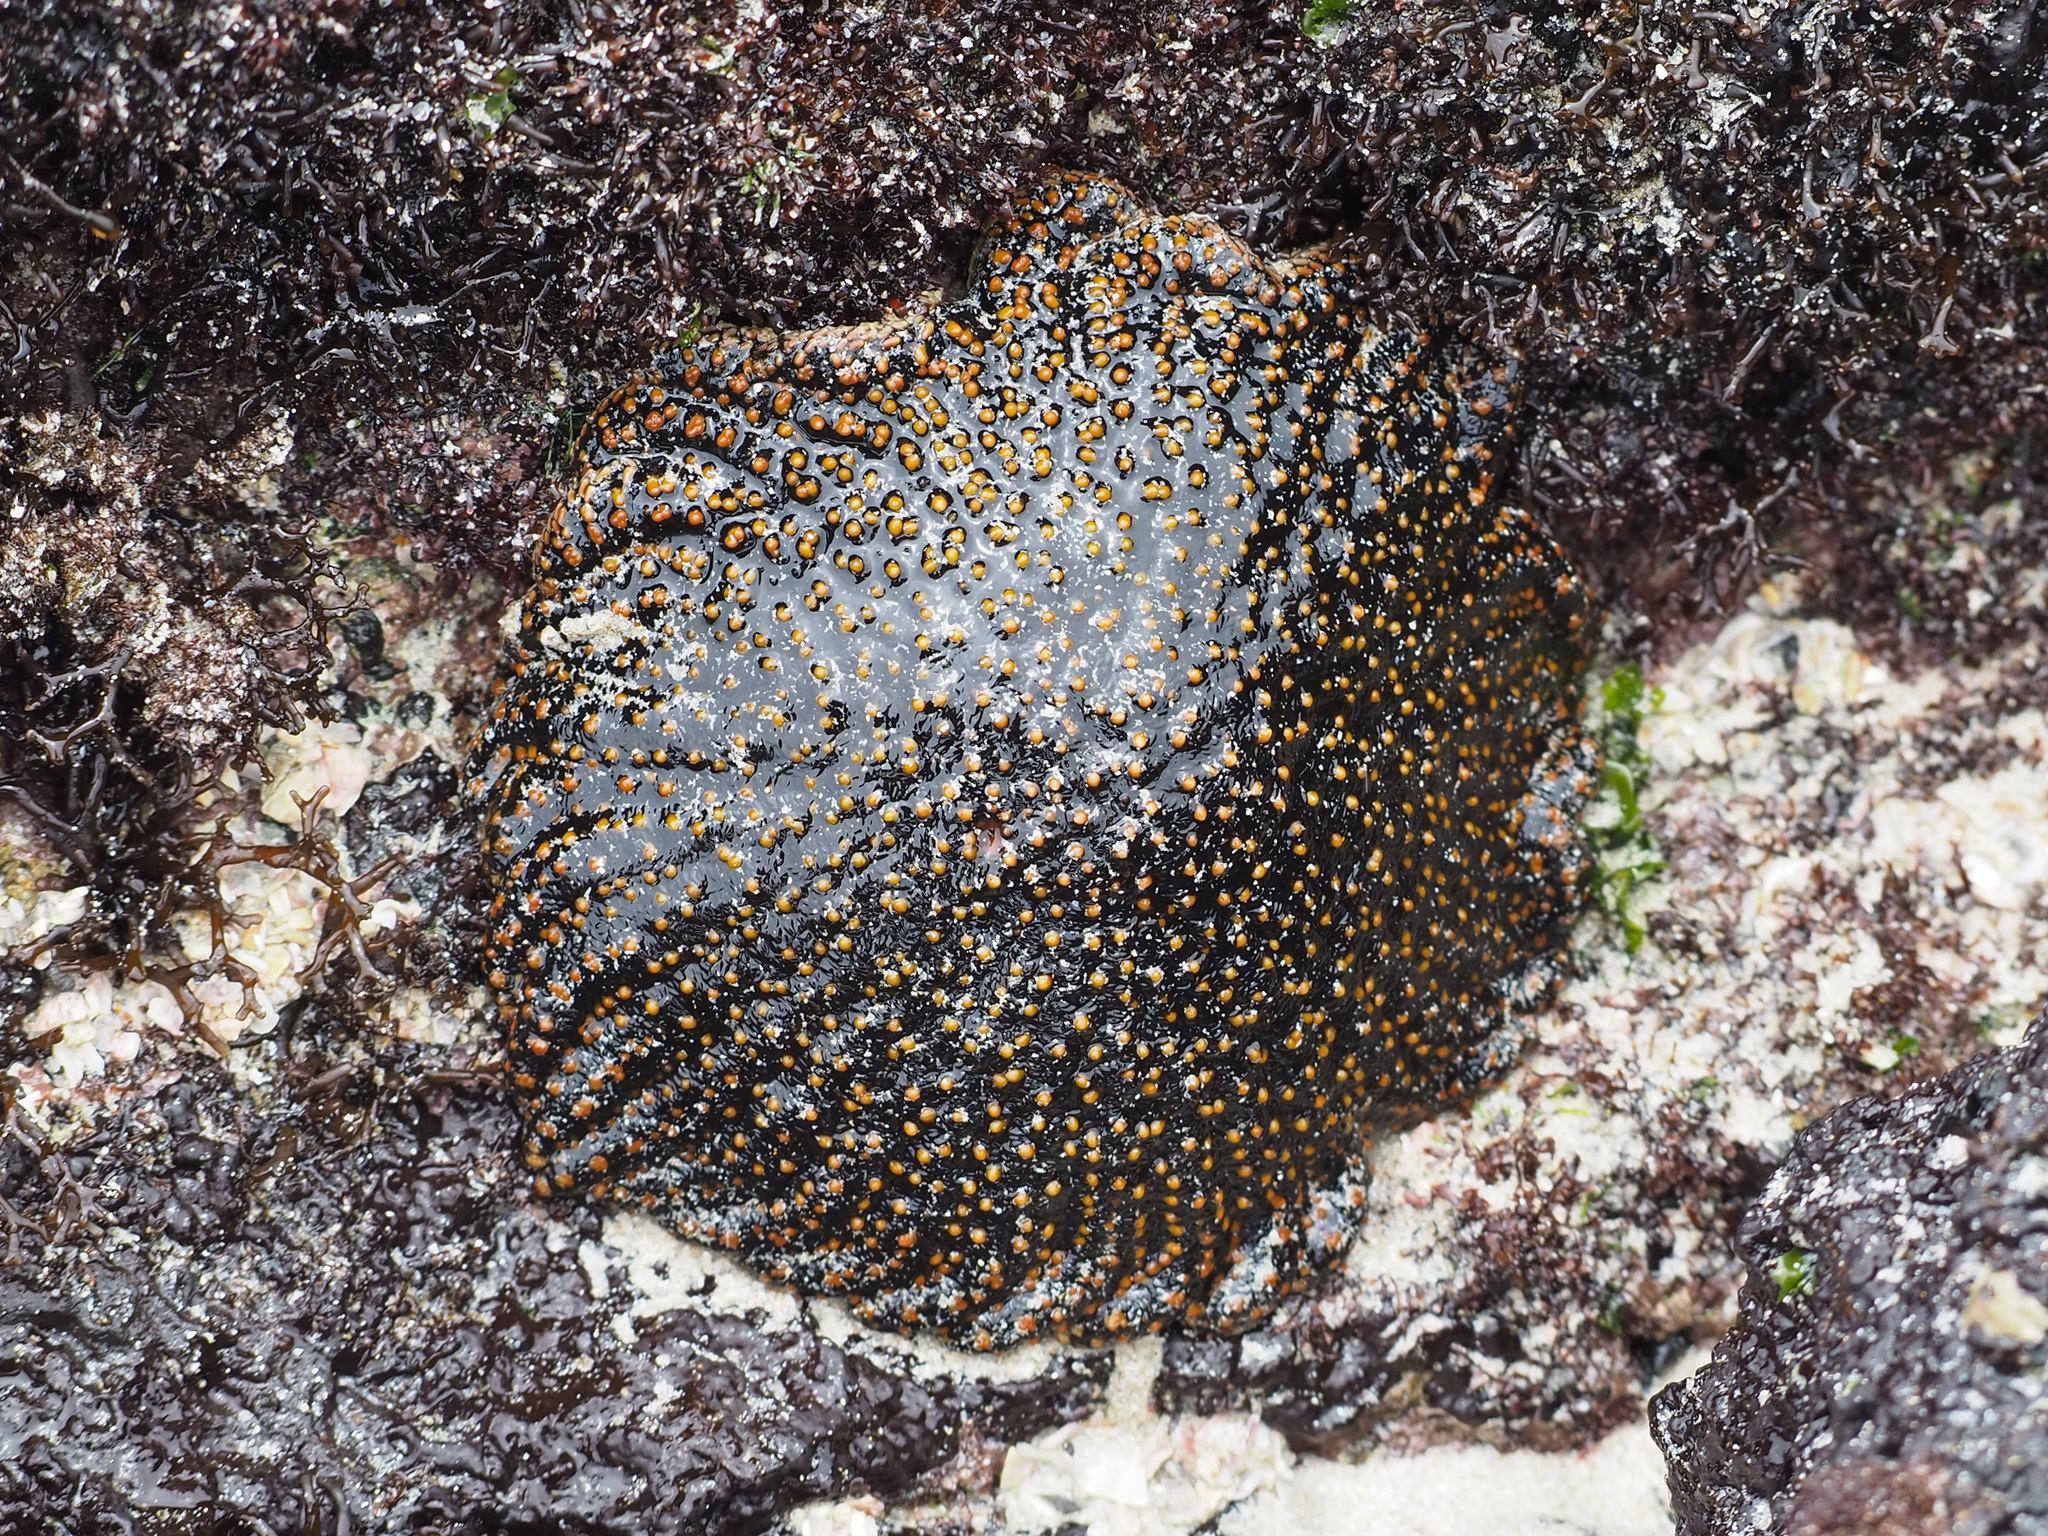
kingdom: Animalia
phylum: Echinodermata
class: Asteroidea
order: Forcipulatida
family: Heliasteridae
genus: Heliaster
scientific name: Heliaster cumingi
